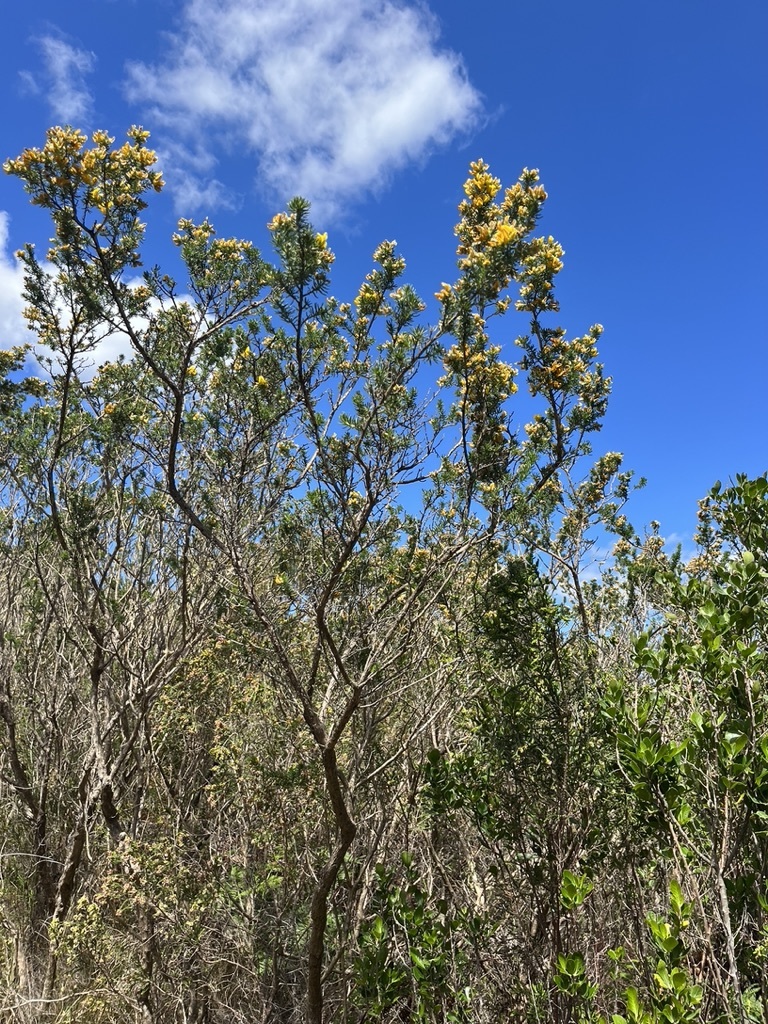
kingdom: Plantae
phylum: Tracheophyta
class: Magnoliopsida
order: Fabales
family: Fabaceae
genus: Aspalathus
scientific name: Aspalathus excelsa
